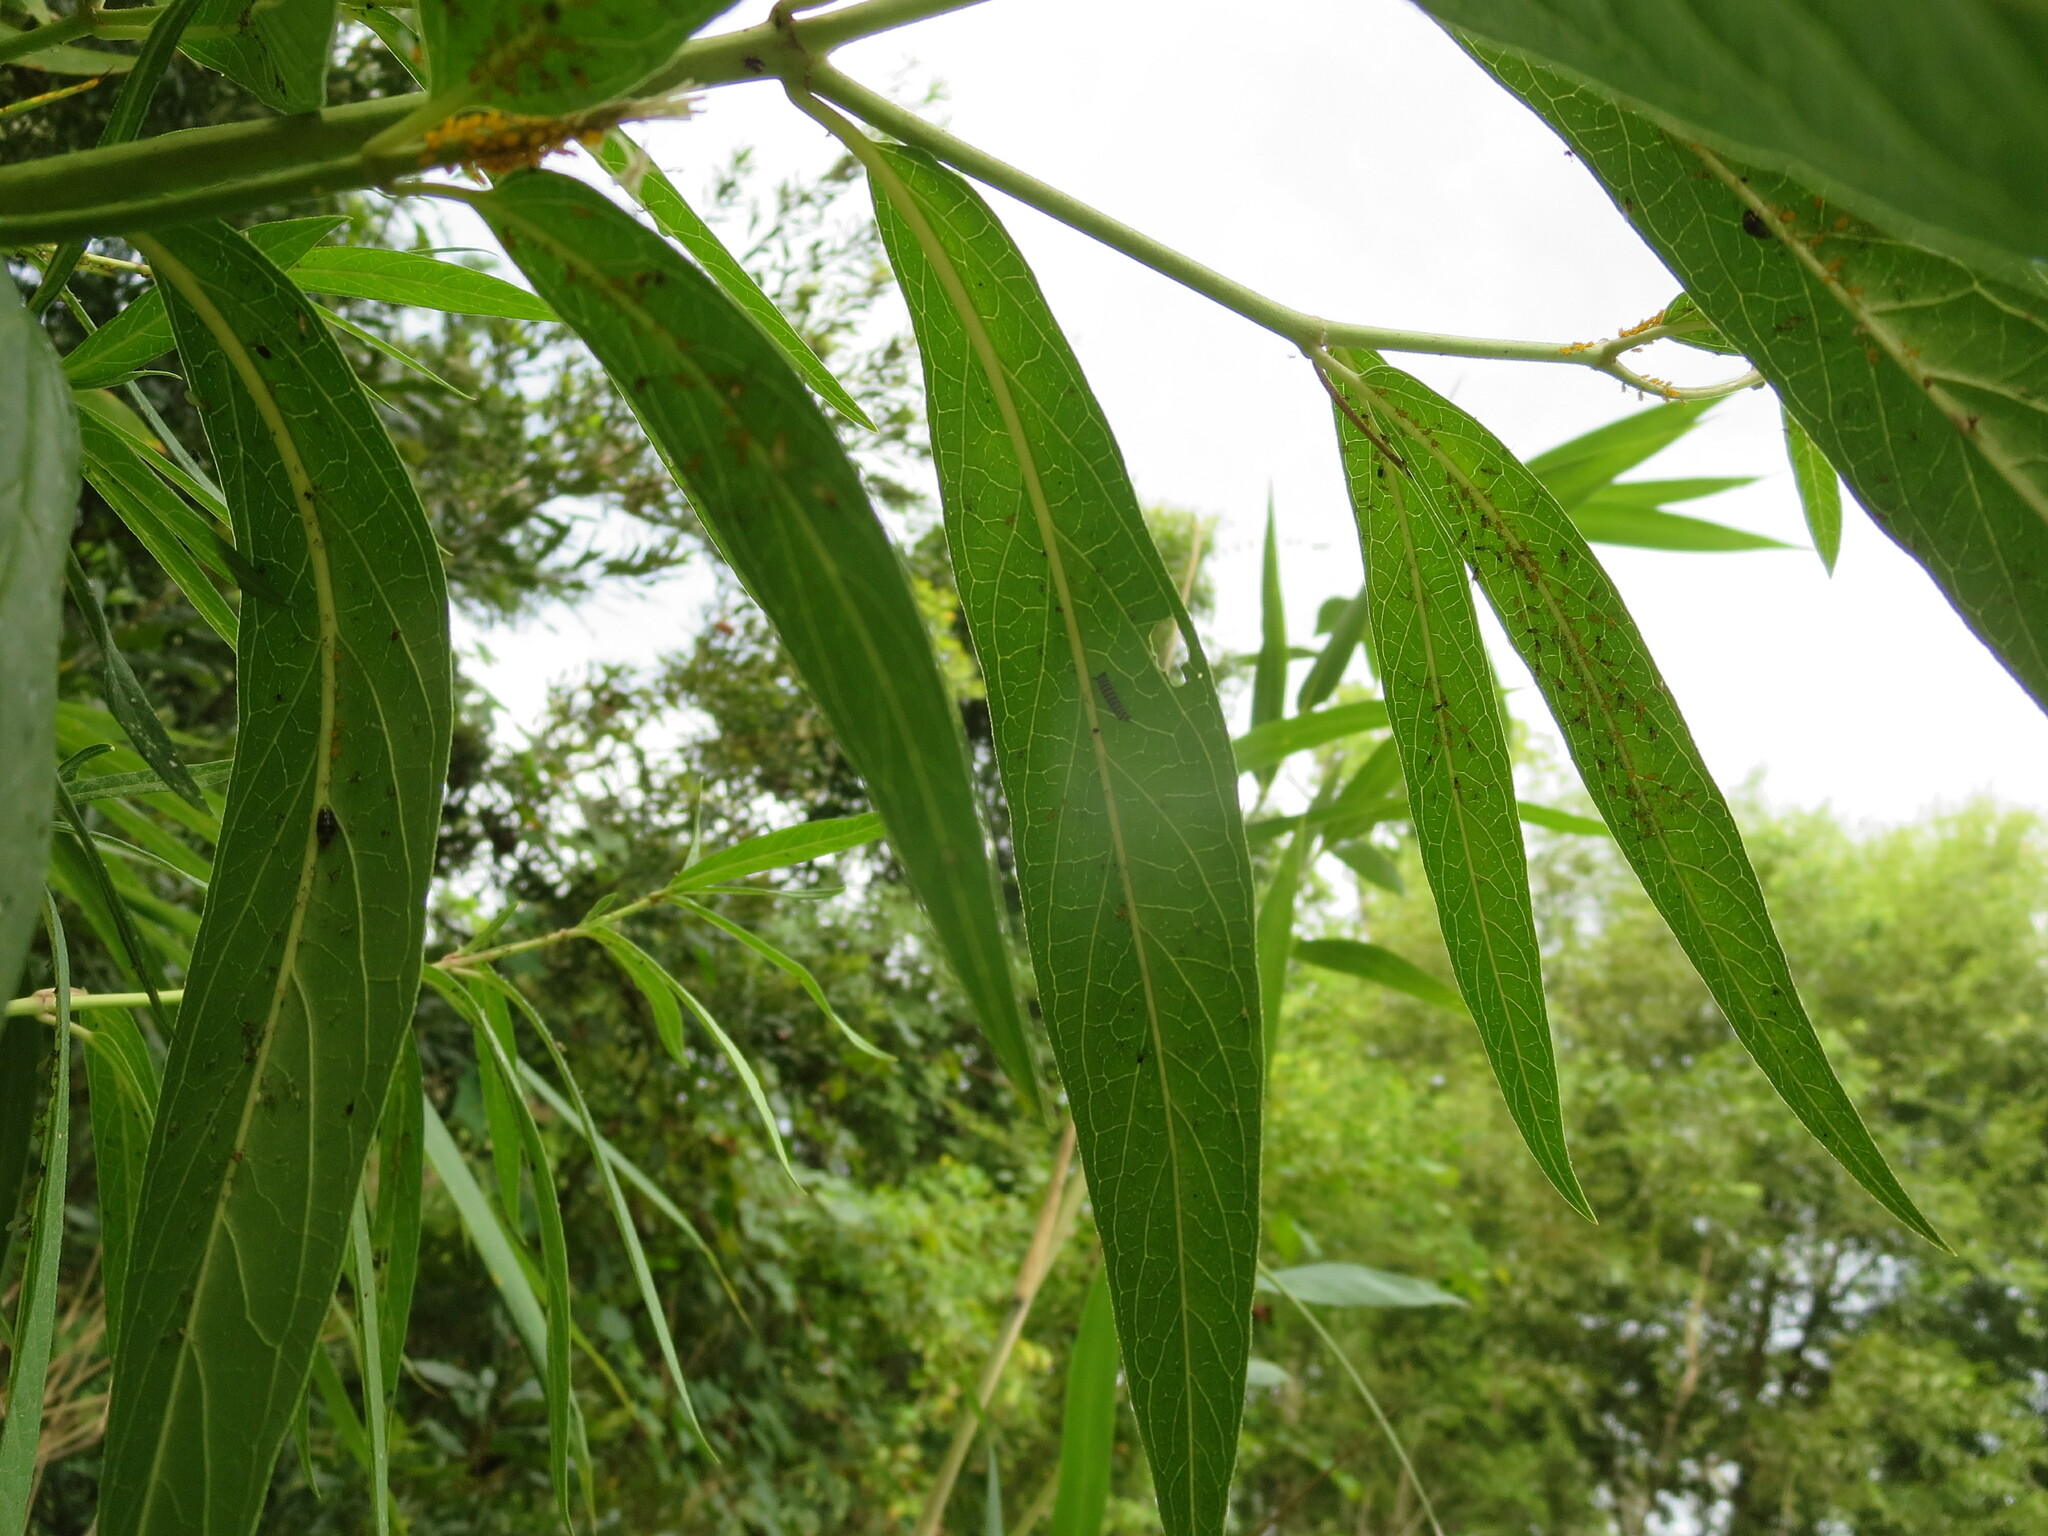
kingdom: Animalia
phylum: Arthropoda
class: Insecta
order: Lepidoptera
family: Nymphalidae
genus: Danaus
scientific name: Danaus plexippus
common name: Monarch
